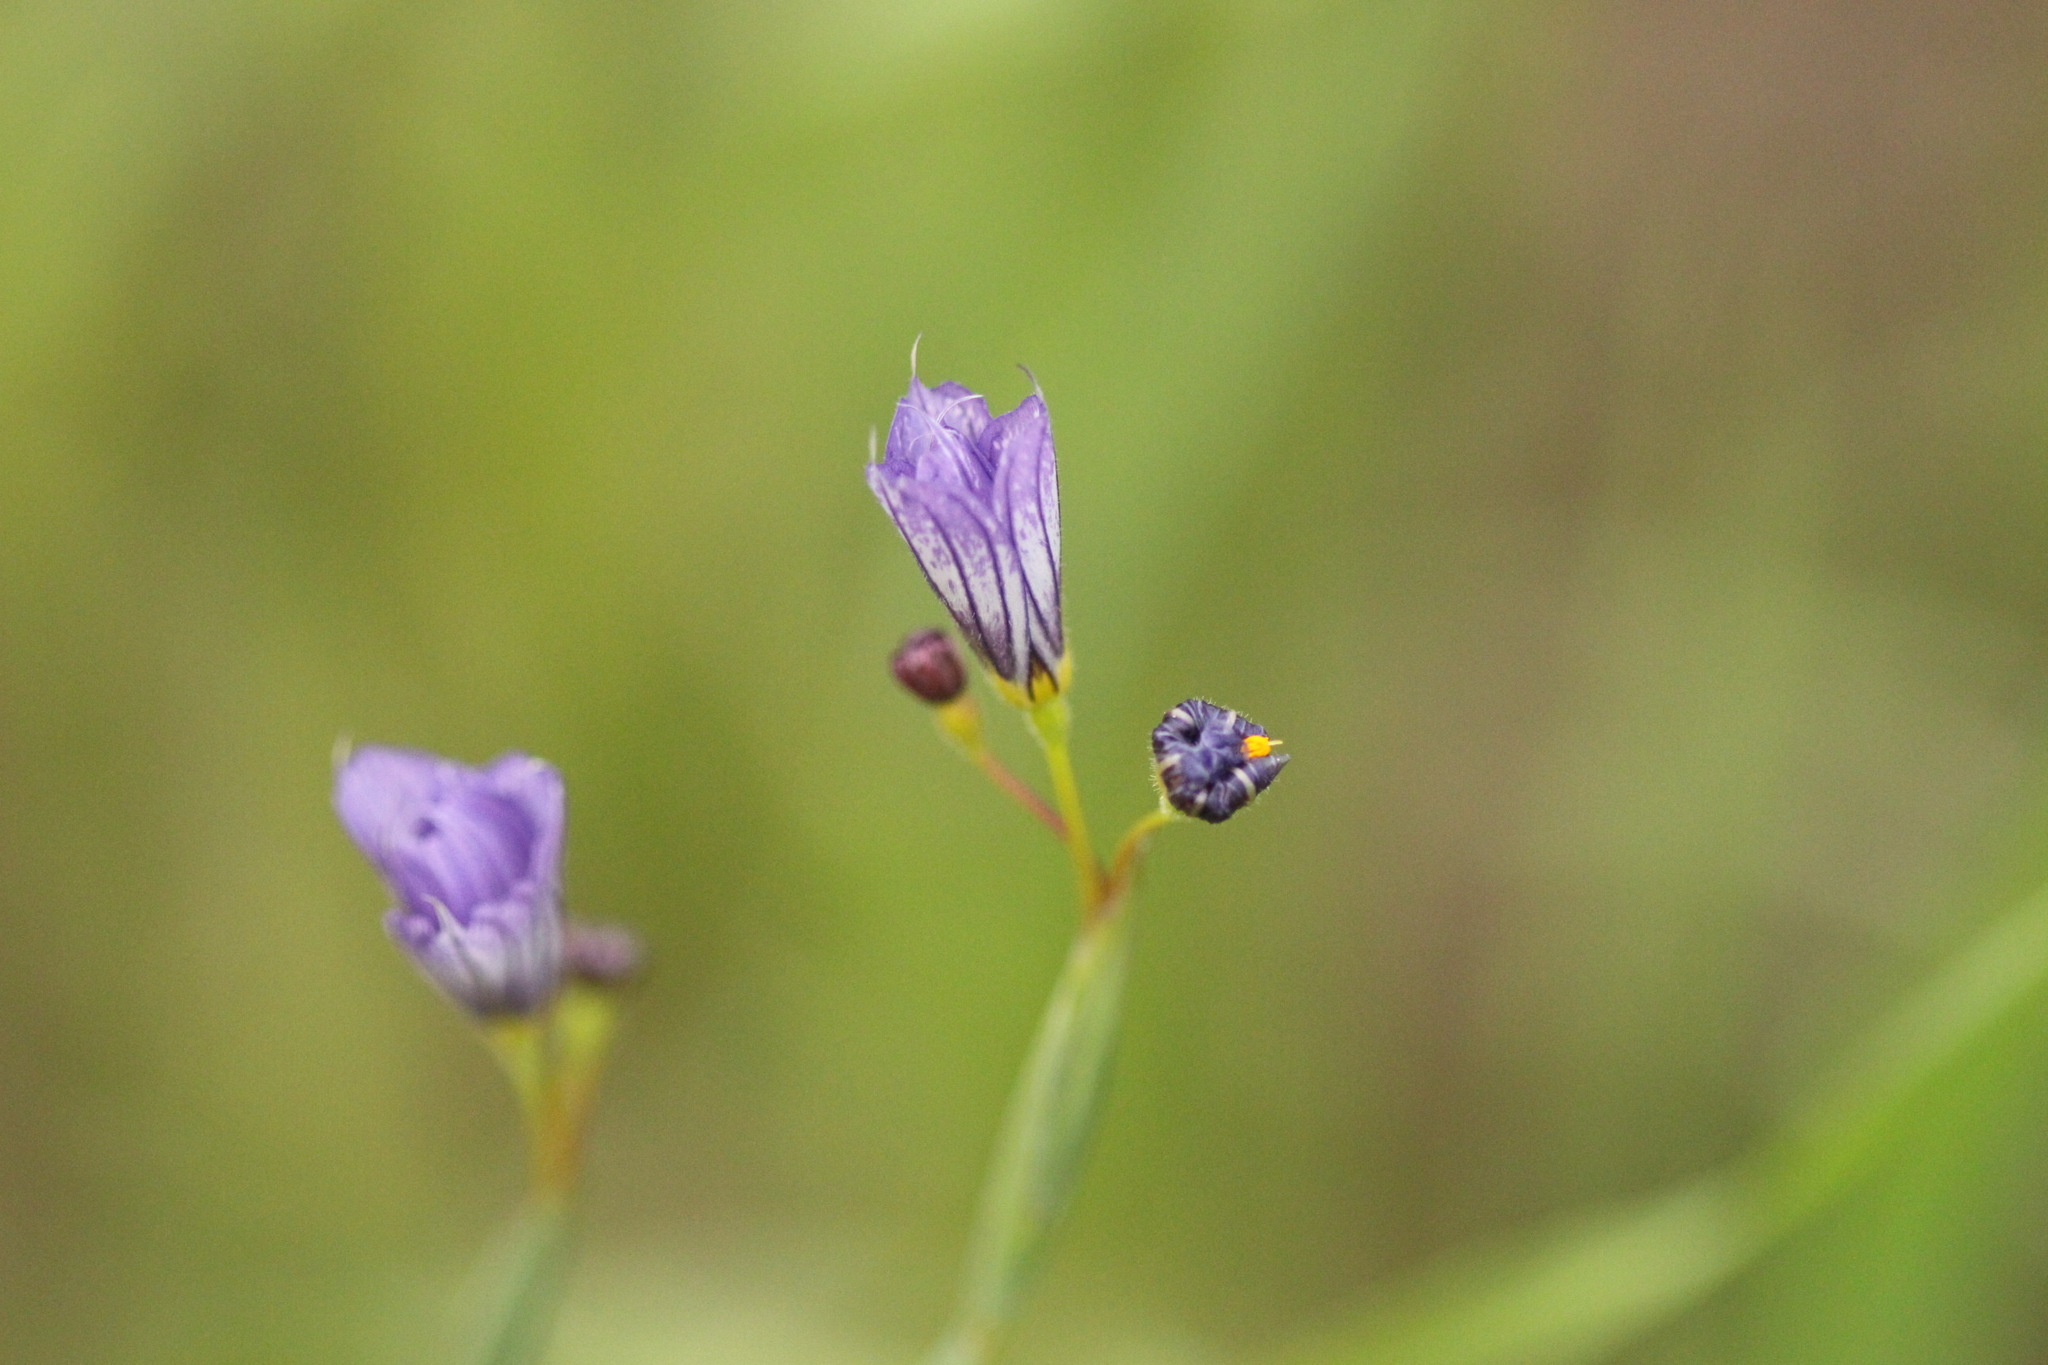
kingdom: Plantae
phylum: Tracheophyta
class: Liliopsida
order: Asparagales
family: Iridaceae
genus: Sisyrinchium
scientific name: Sisyrinchium bellum
